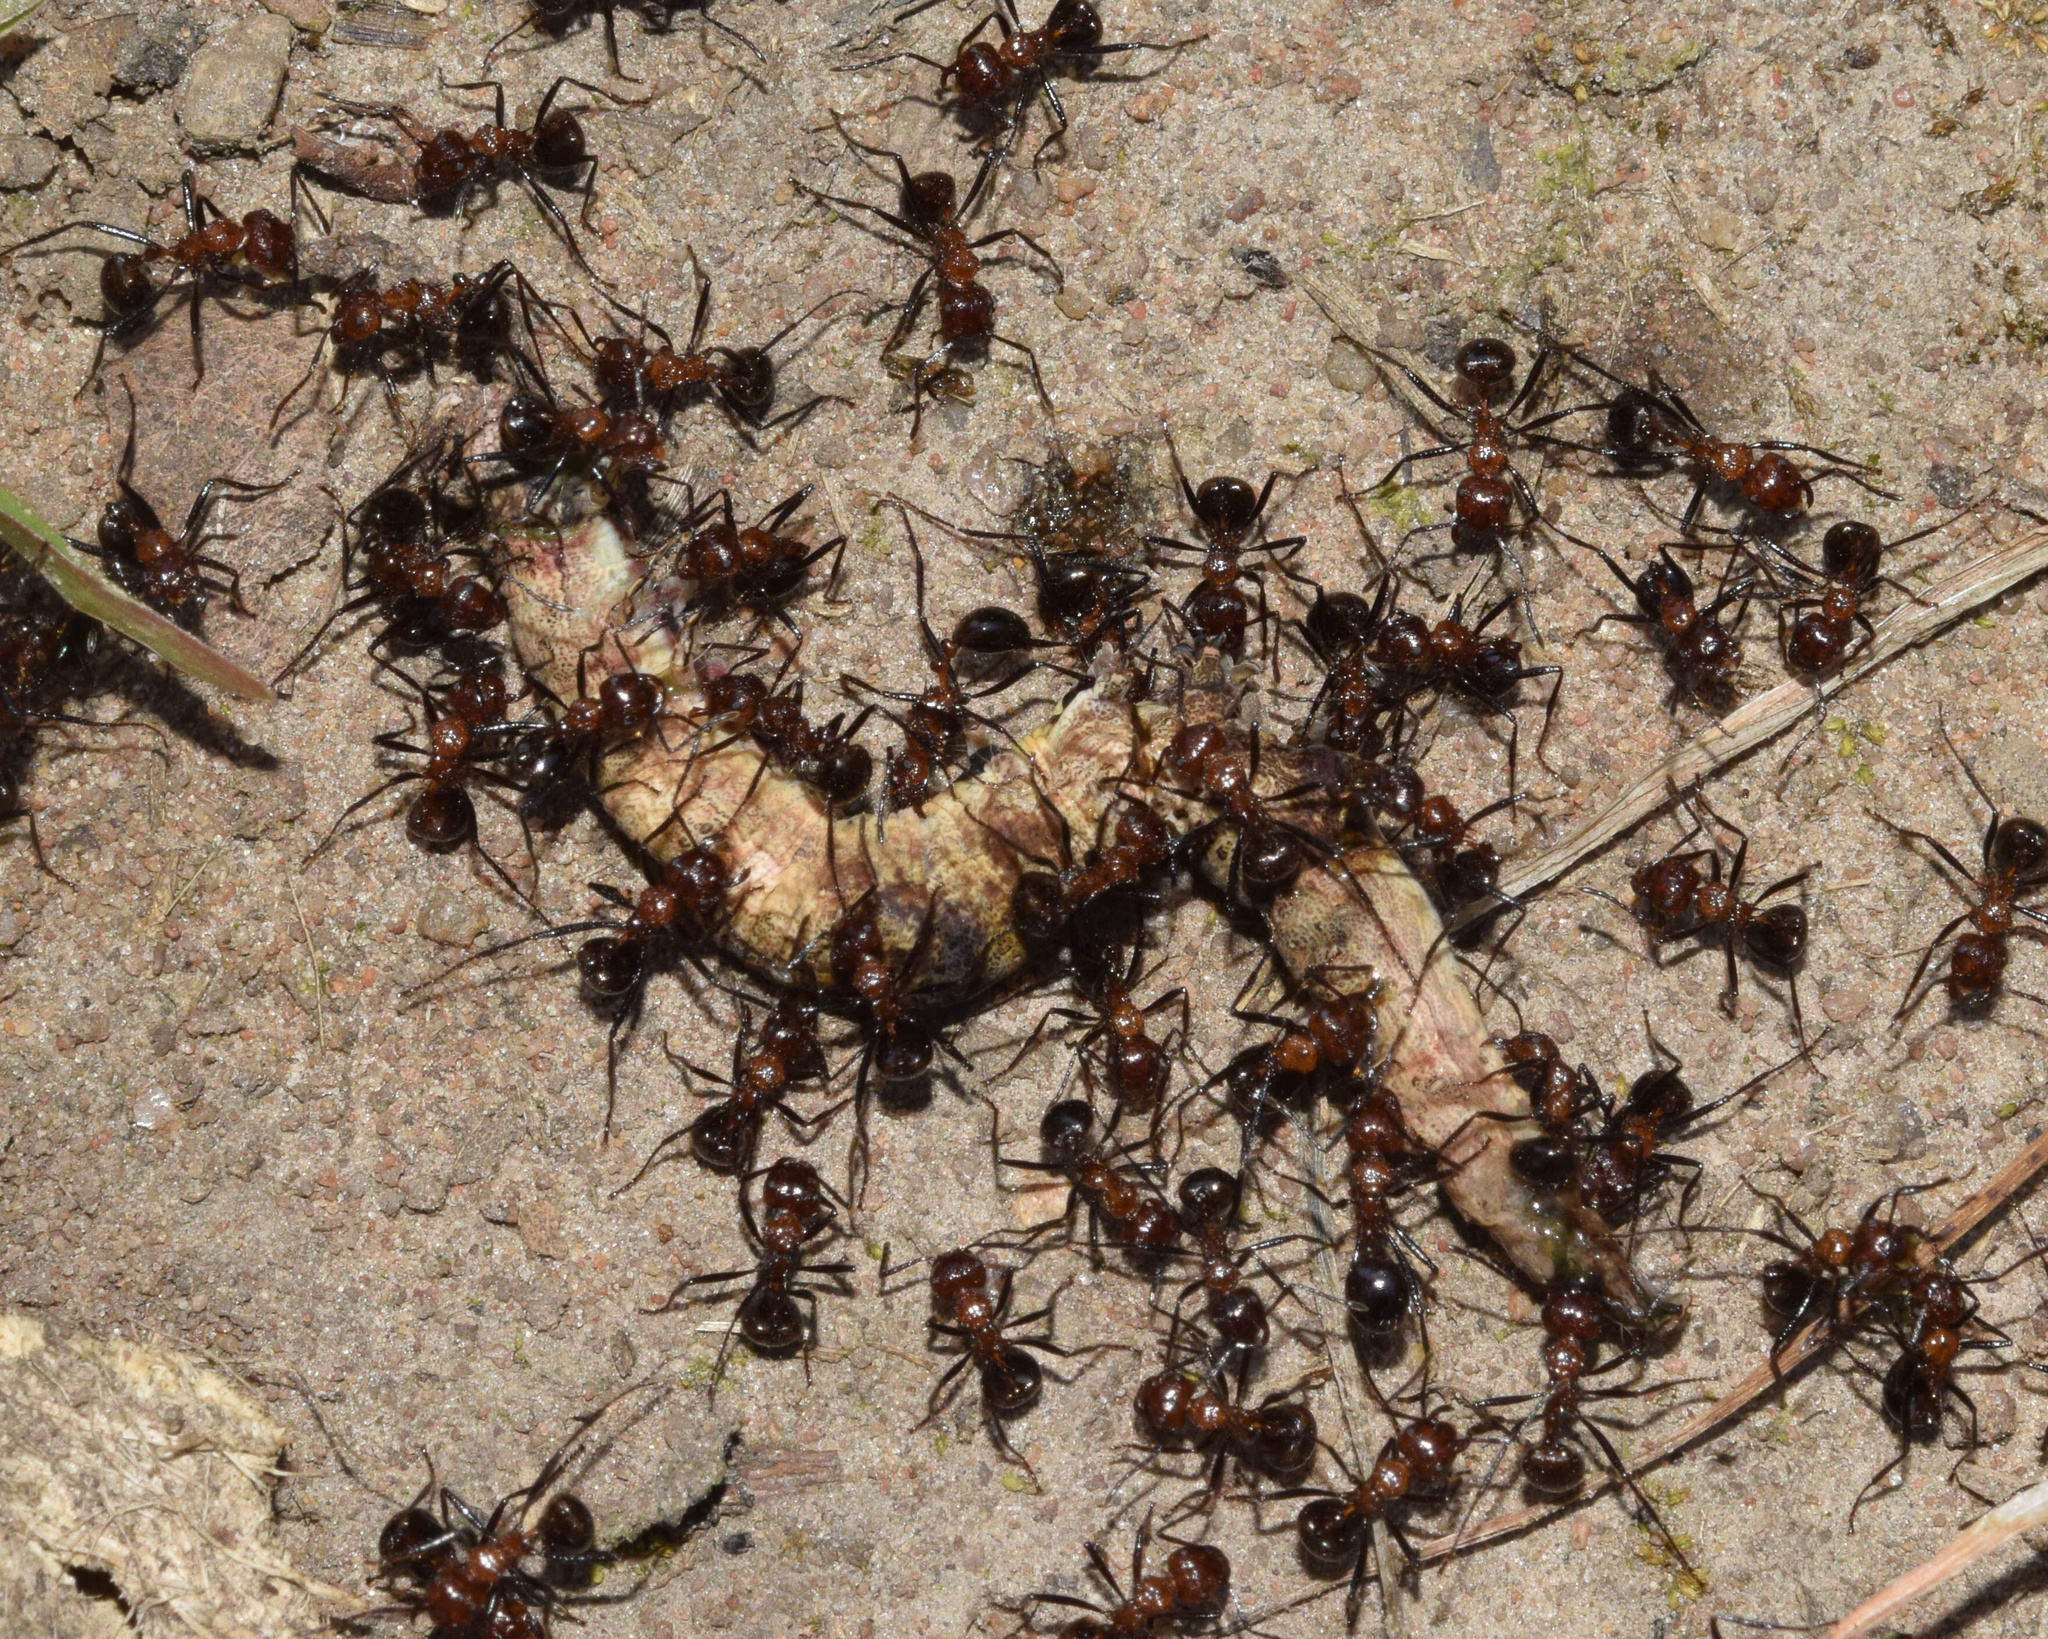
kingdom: Animalia
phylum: Arthropoda
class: Insecta
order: Hymenoptera
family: Formicidae
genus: Myrmicaria
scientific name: Myrmicaria natalensis
